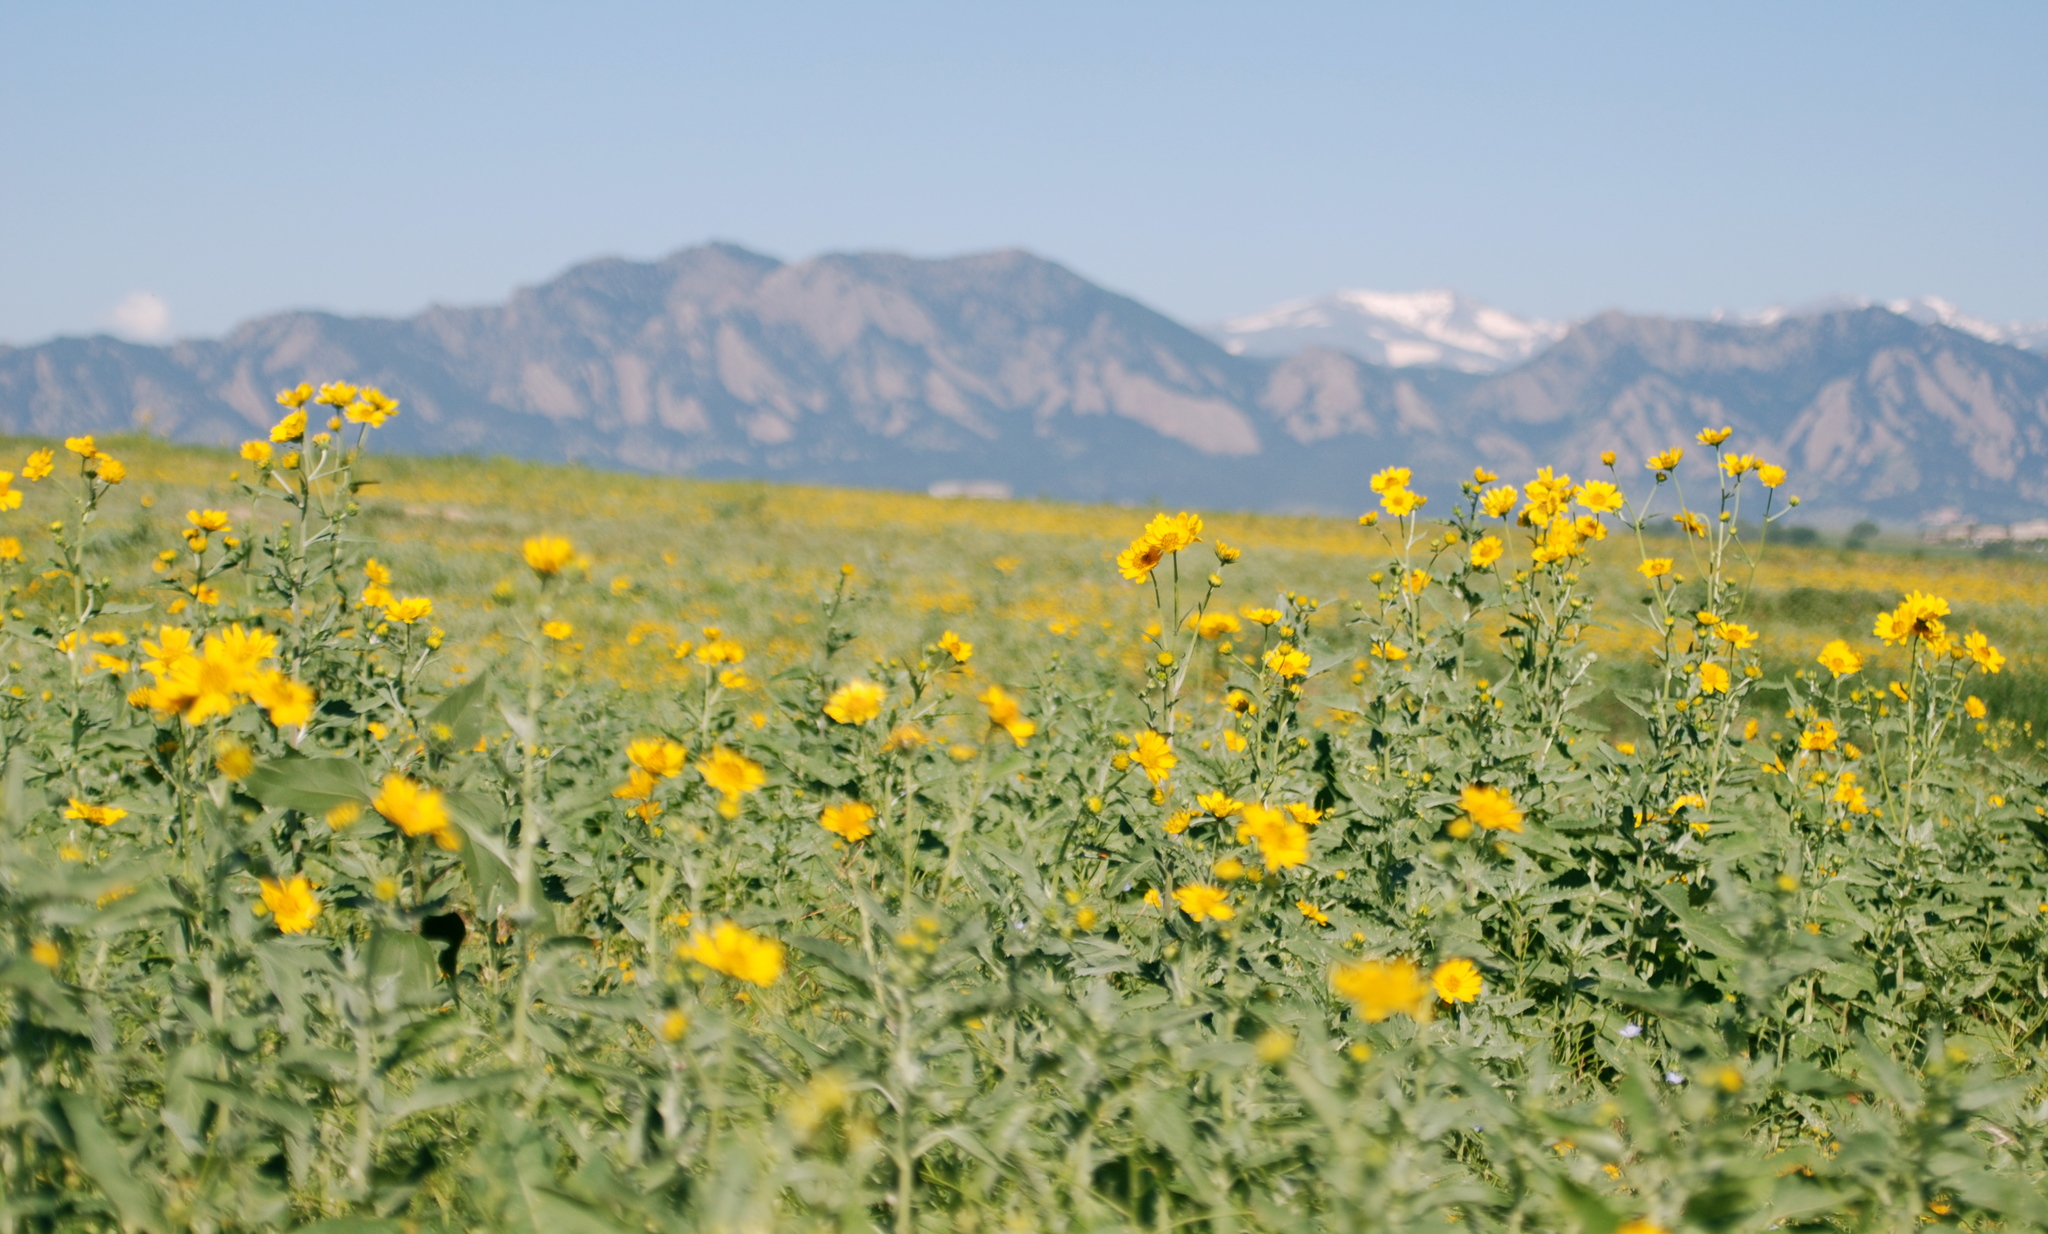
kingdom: Plantae
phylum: Tracheophyta
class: Magnoliopsida
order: Asterales
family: Asteraceae
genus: Verbesina
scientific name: Verbesina encelioides
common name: Golden crownbeard
